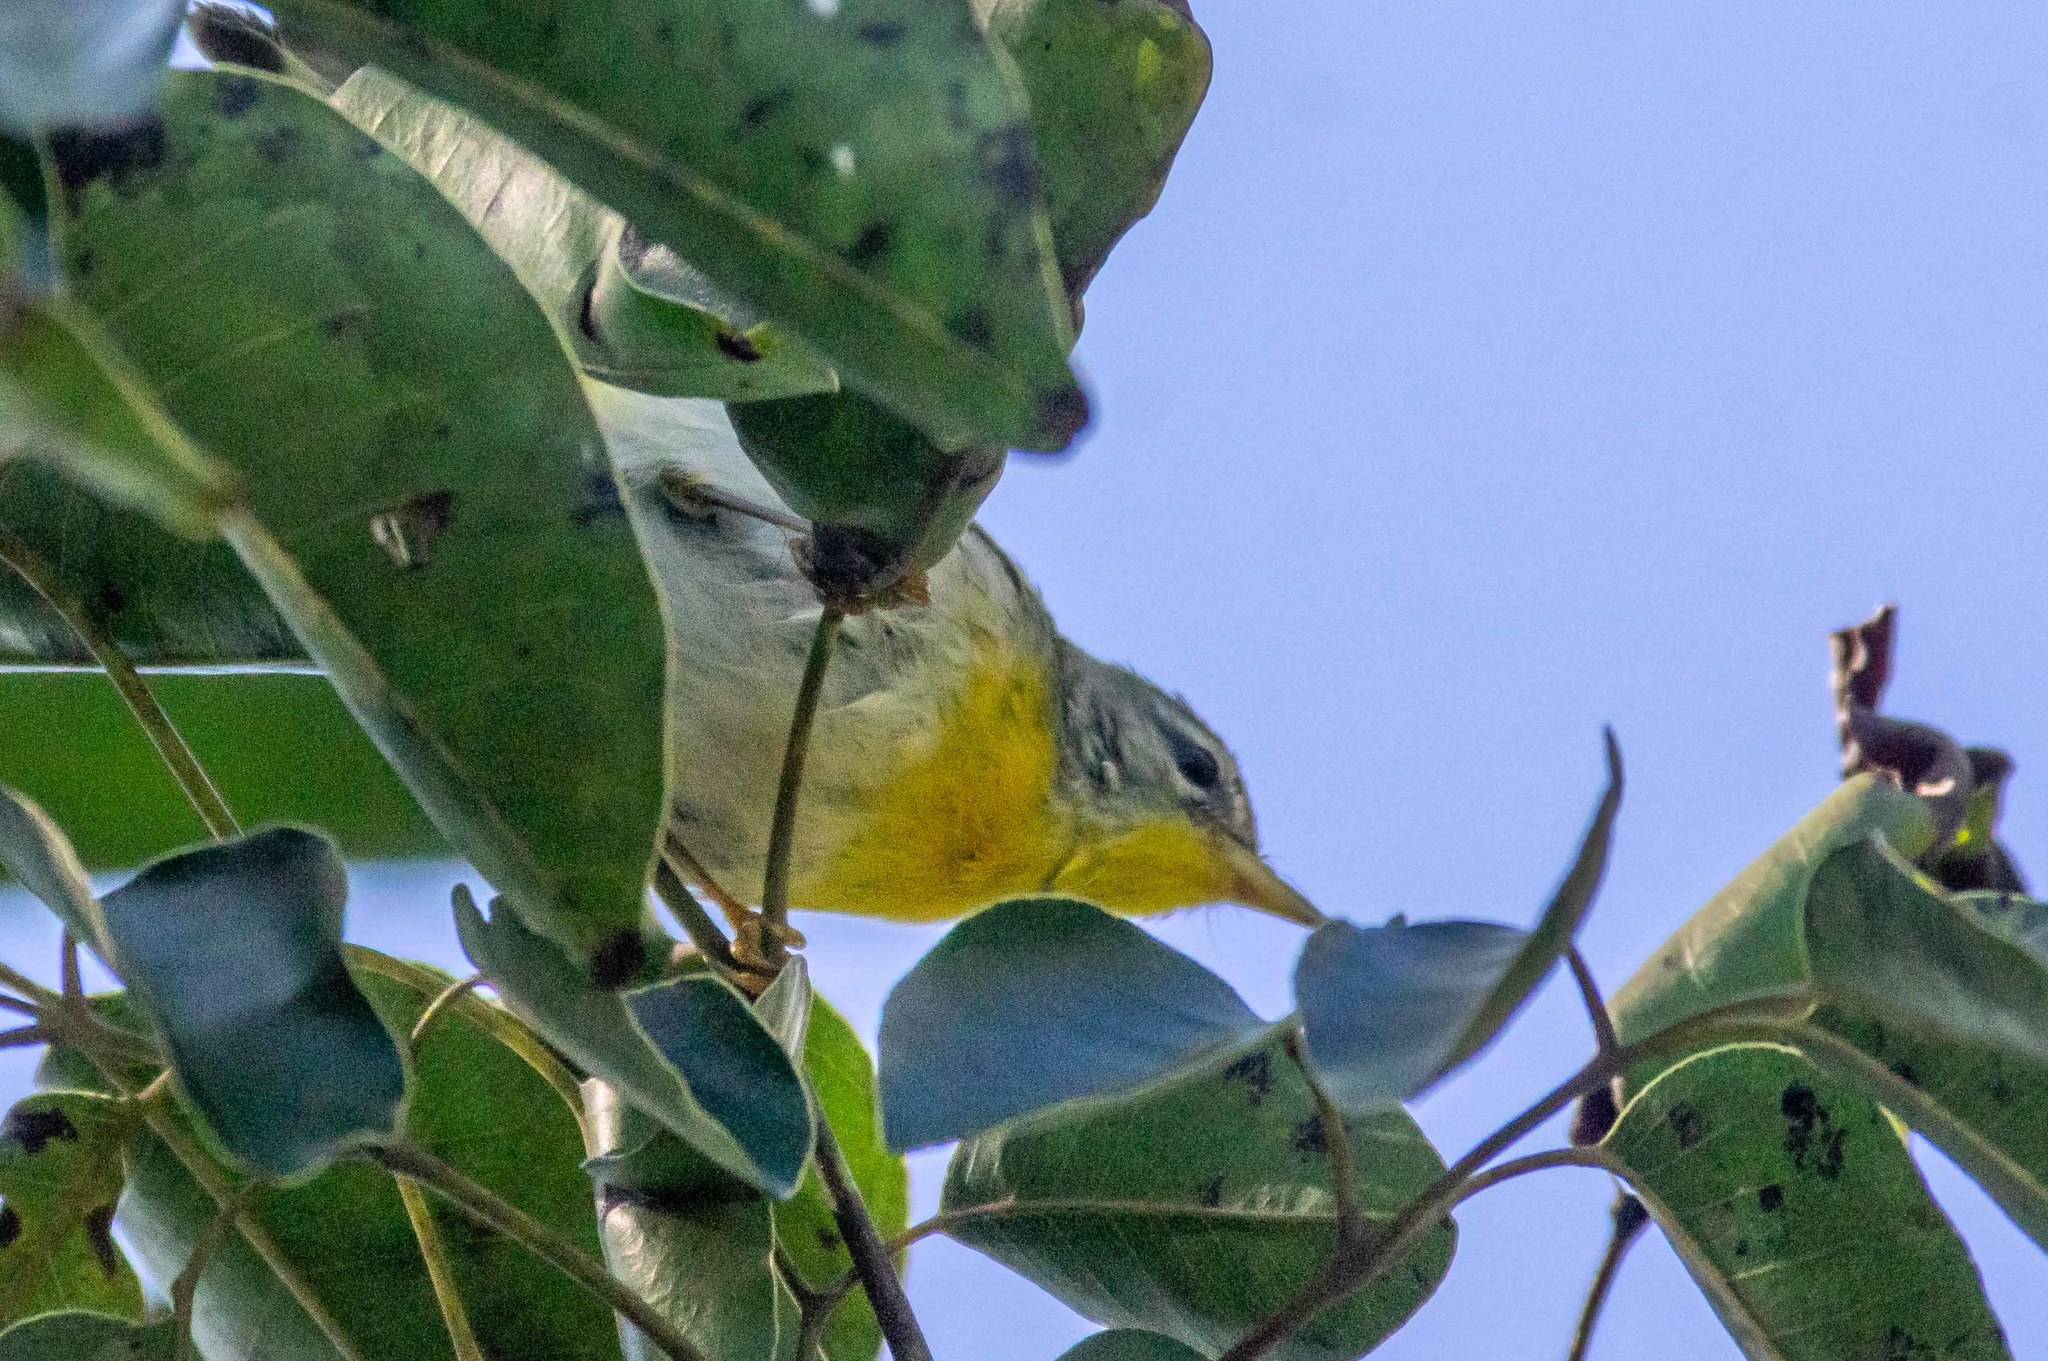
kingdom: Animalia
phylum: Chordata
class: Aves
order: Passeriformes
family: Parulidae
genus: Setophaga
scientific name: Setophaga americana
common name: Northern parula
